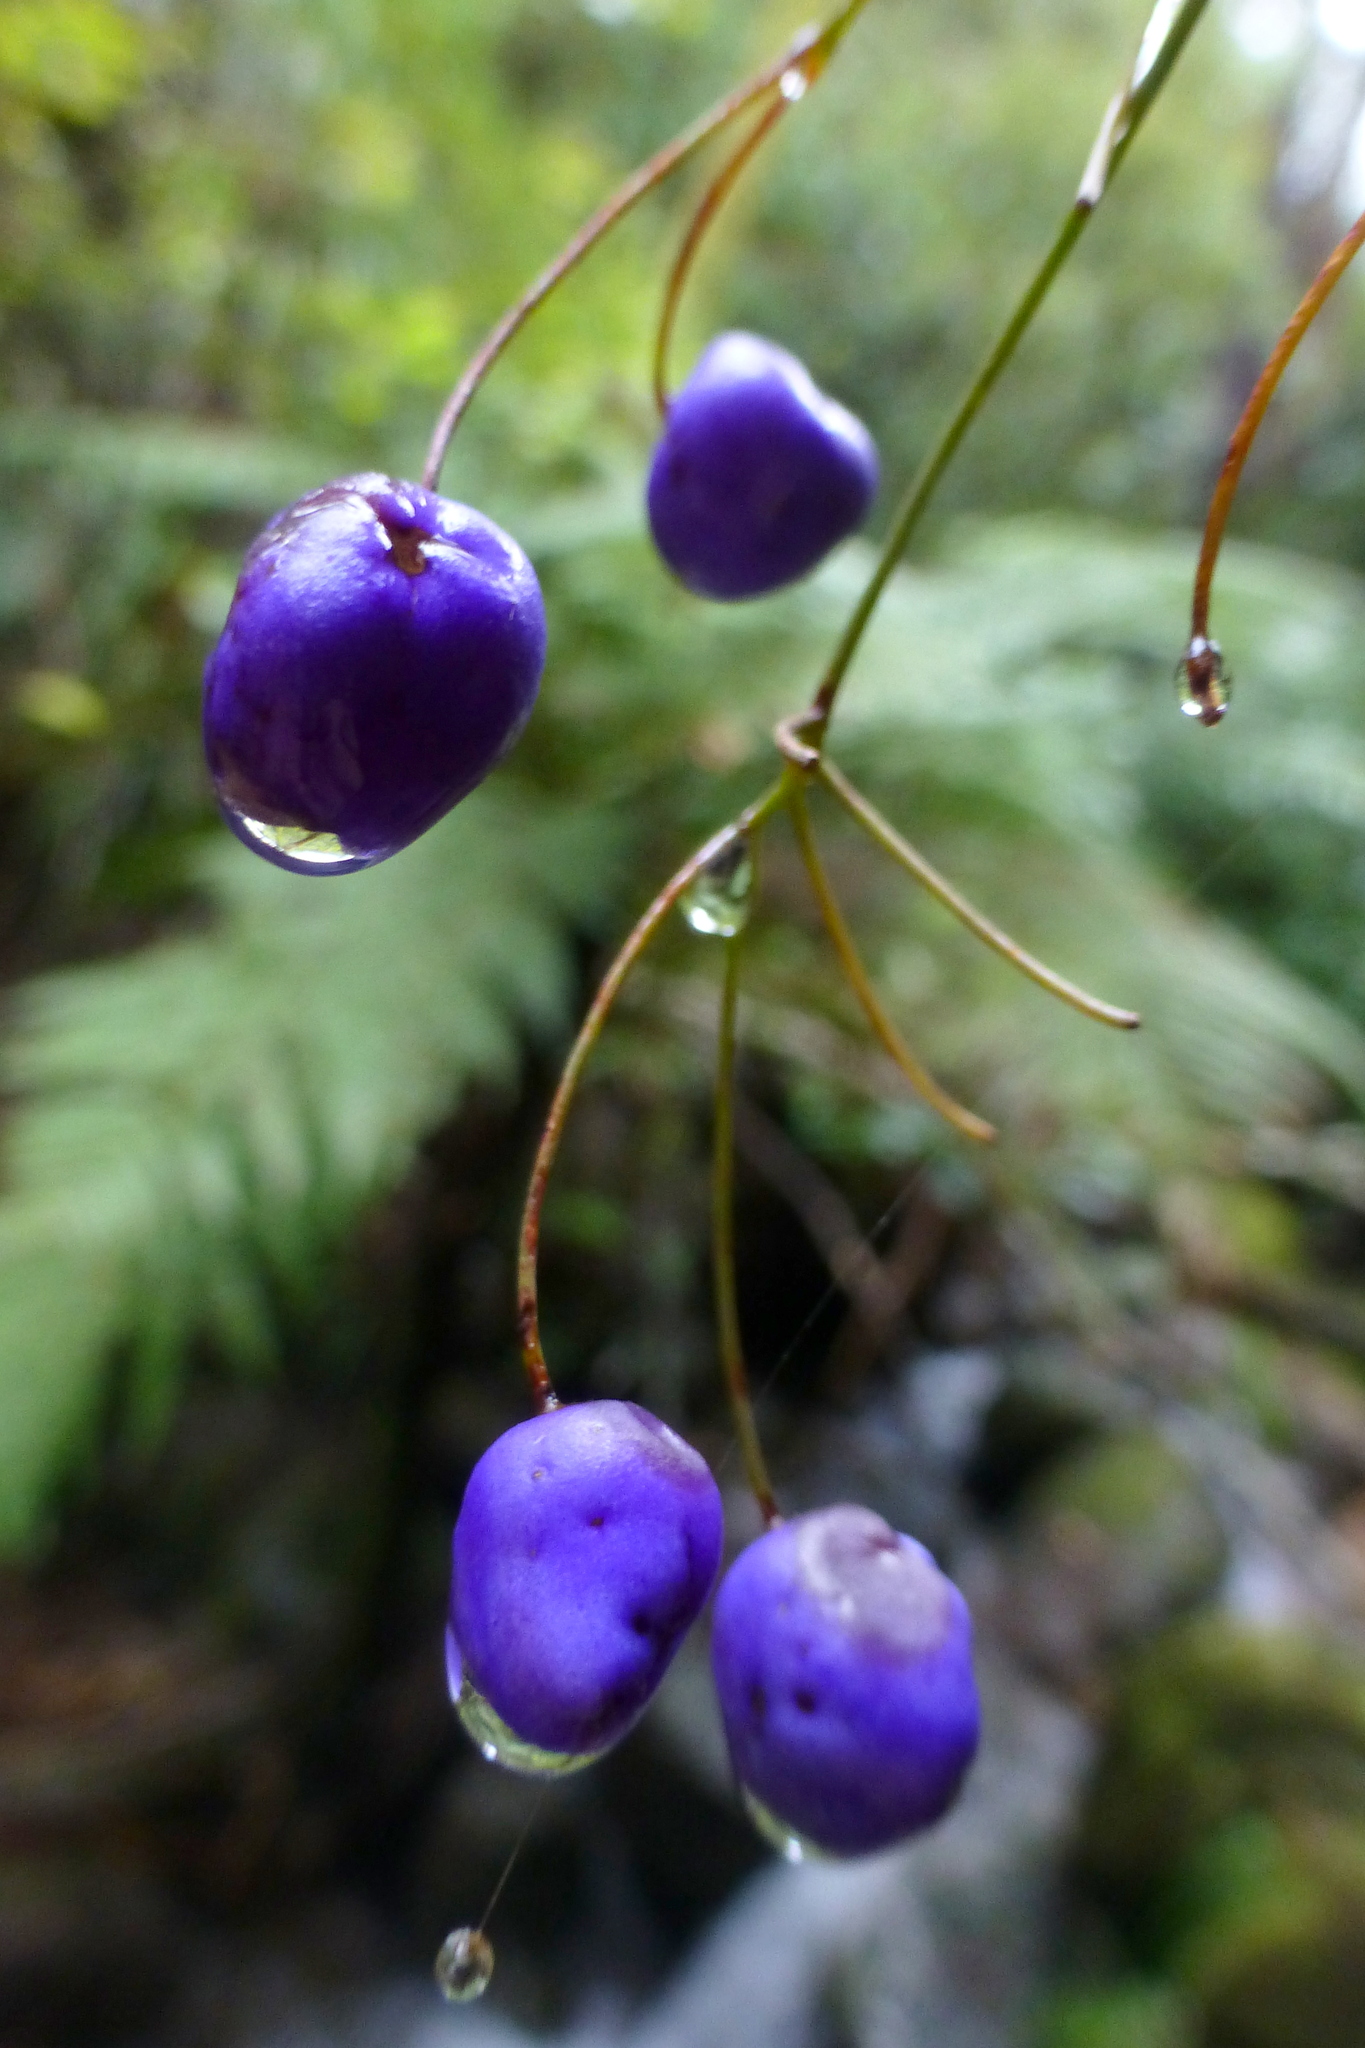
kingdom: Plantae
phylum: Tracheophyta
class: Liliopsida
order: Asparagales
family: Asphodelaceae
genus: Dianella
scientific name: Dianella nigra
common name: New zealand-blueberry
